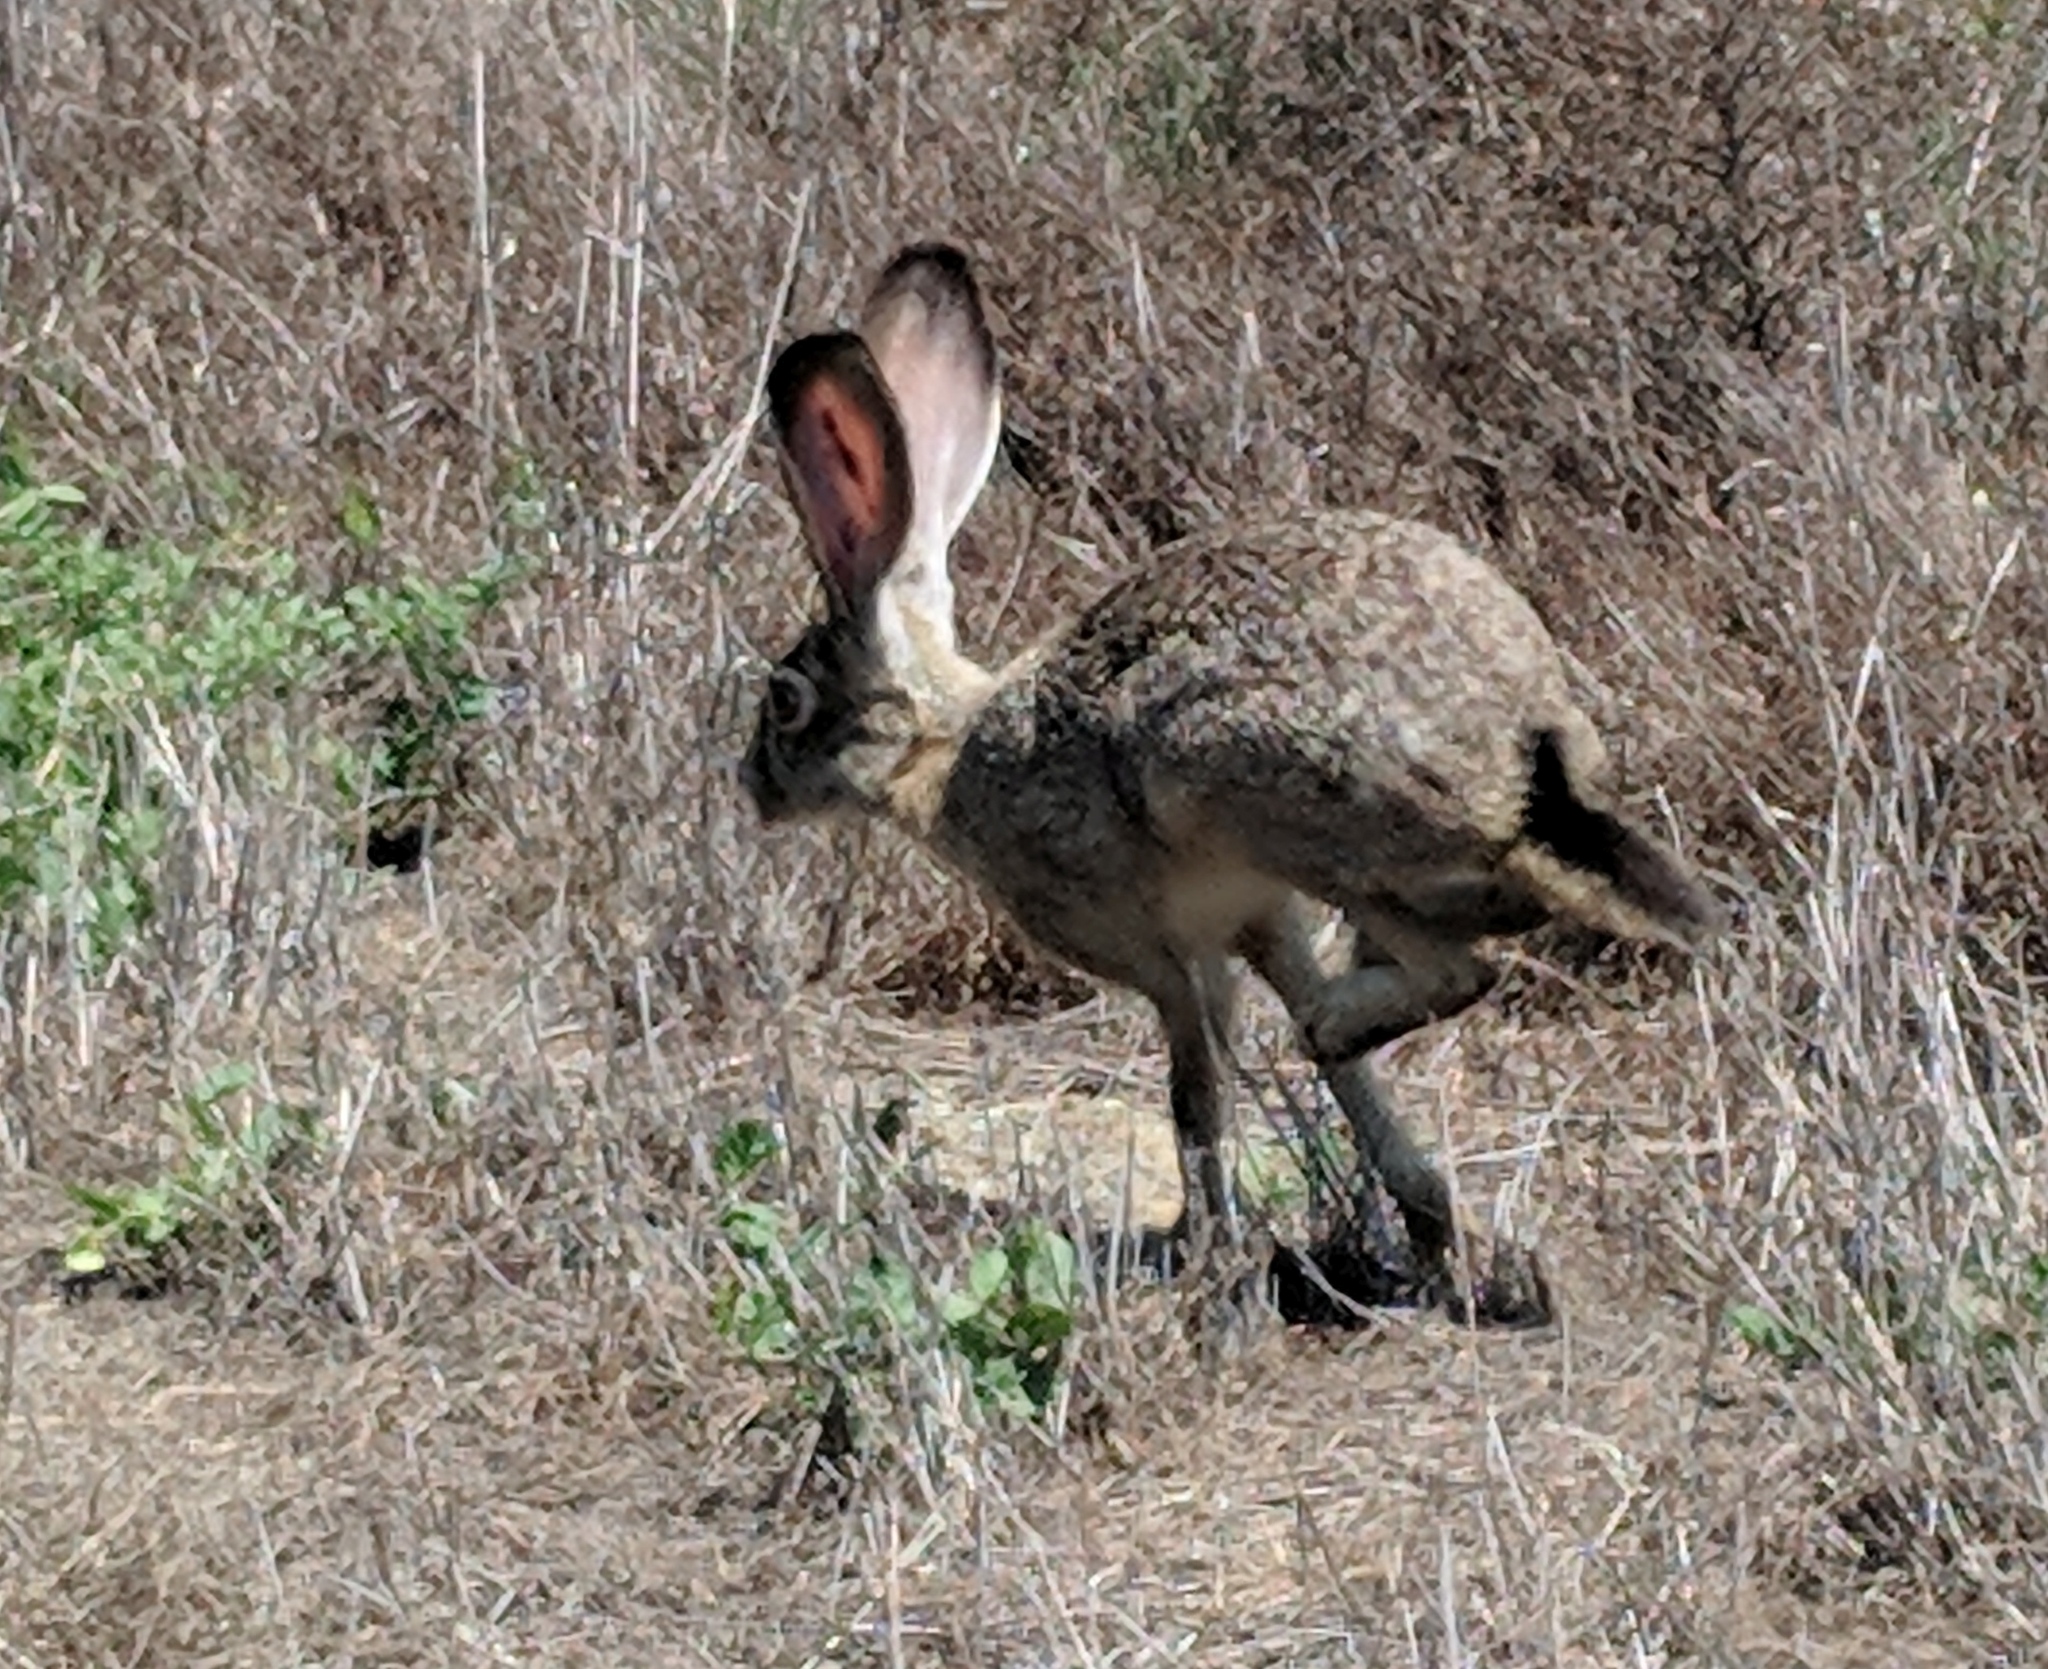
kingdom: Animalia
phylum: Chordata
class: Mammalia
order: Lagomorpha
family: Leporidae
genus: Lepus
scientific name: Lepus californicus
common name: Black-tailed jackrabbit
